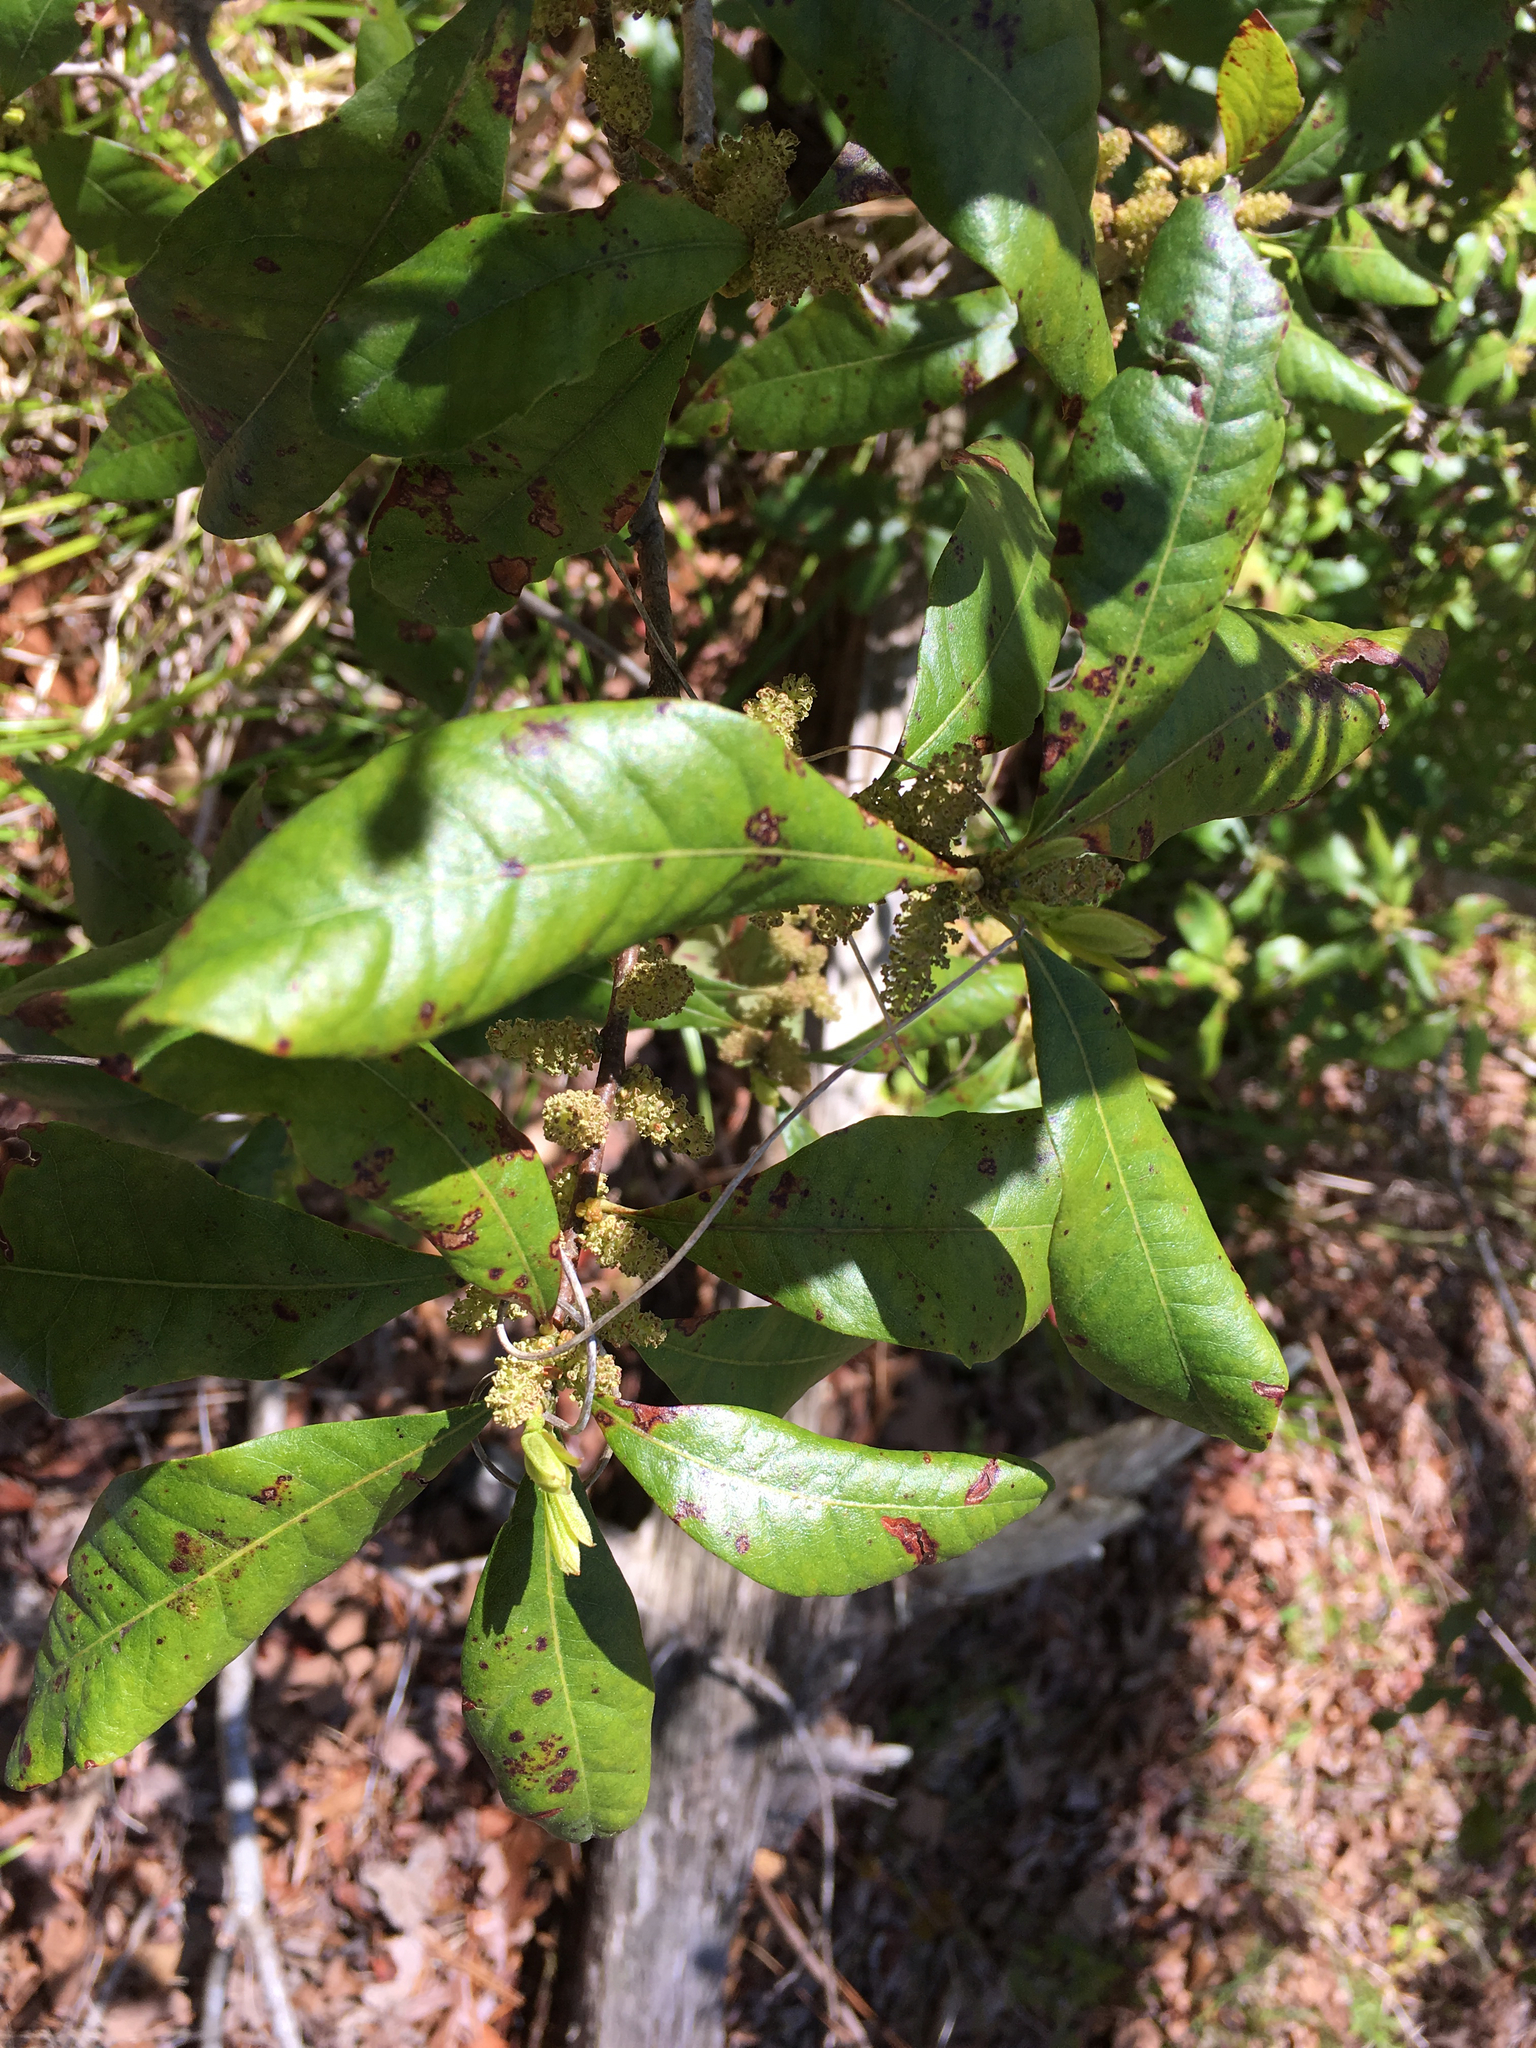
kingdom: Plantae
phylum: Tracheophyta
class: Magnoliopsida
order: Fagales
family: Myricaceae
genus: Morella
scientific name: Morella caroliniensis
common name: Evergreen bayberry
